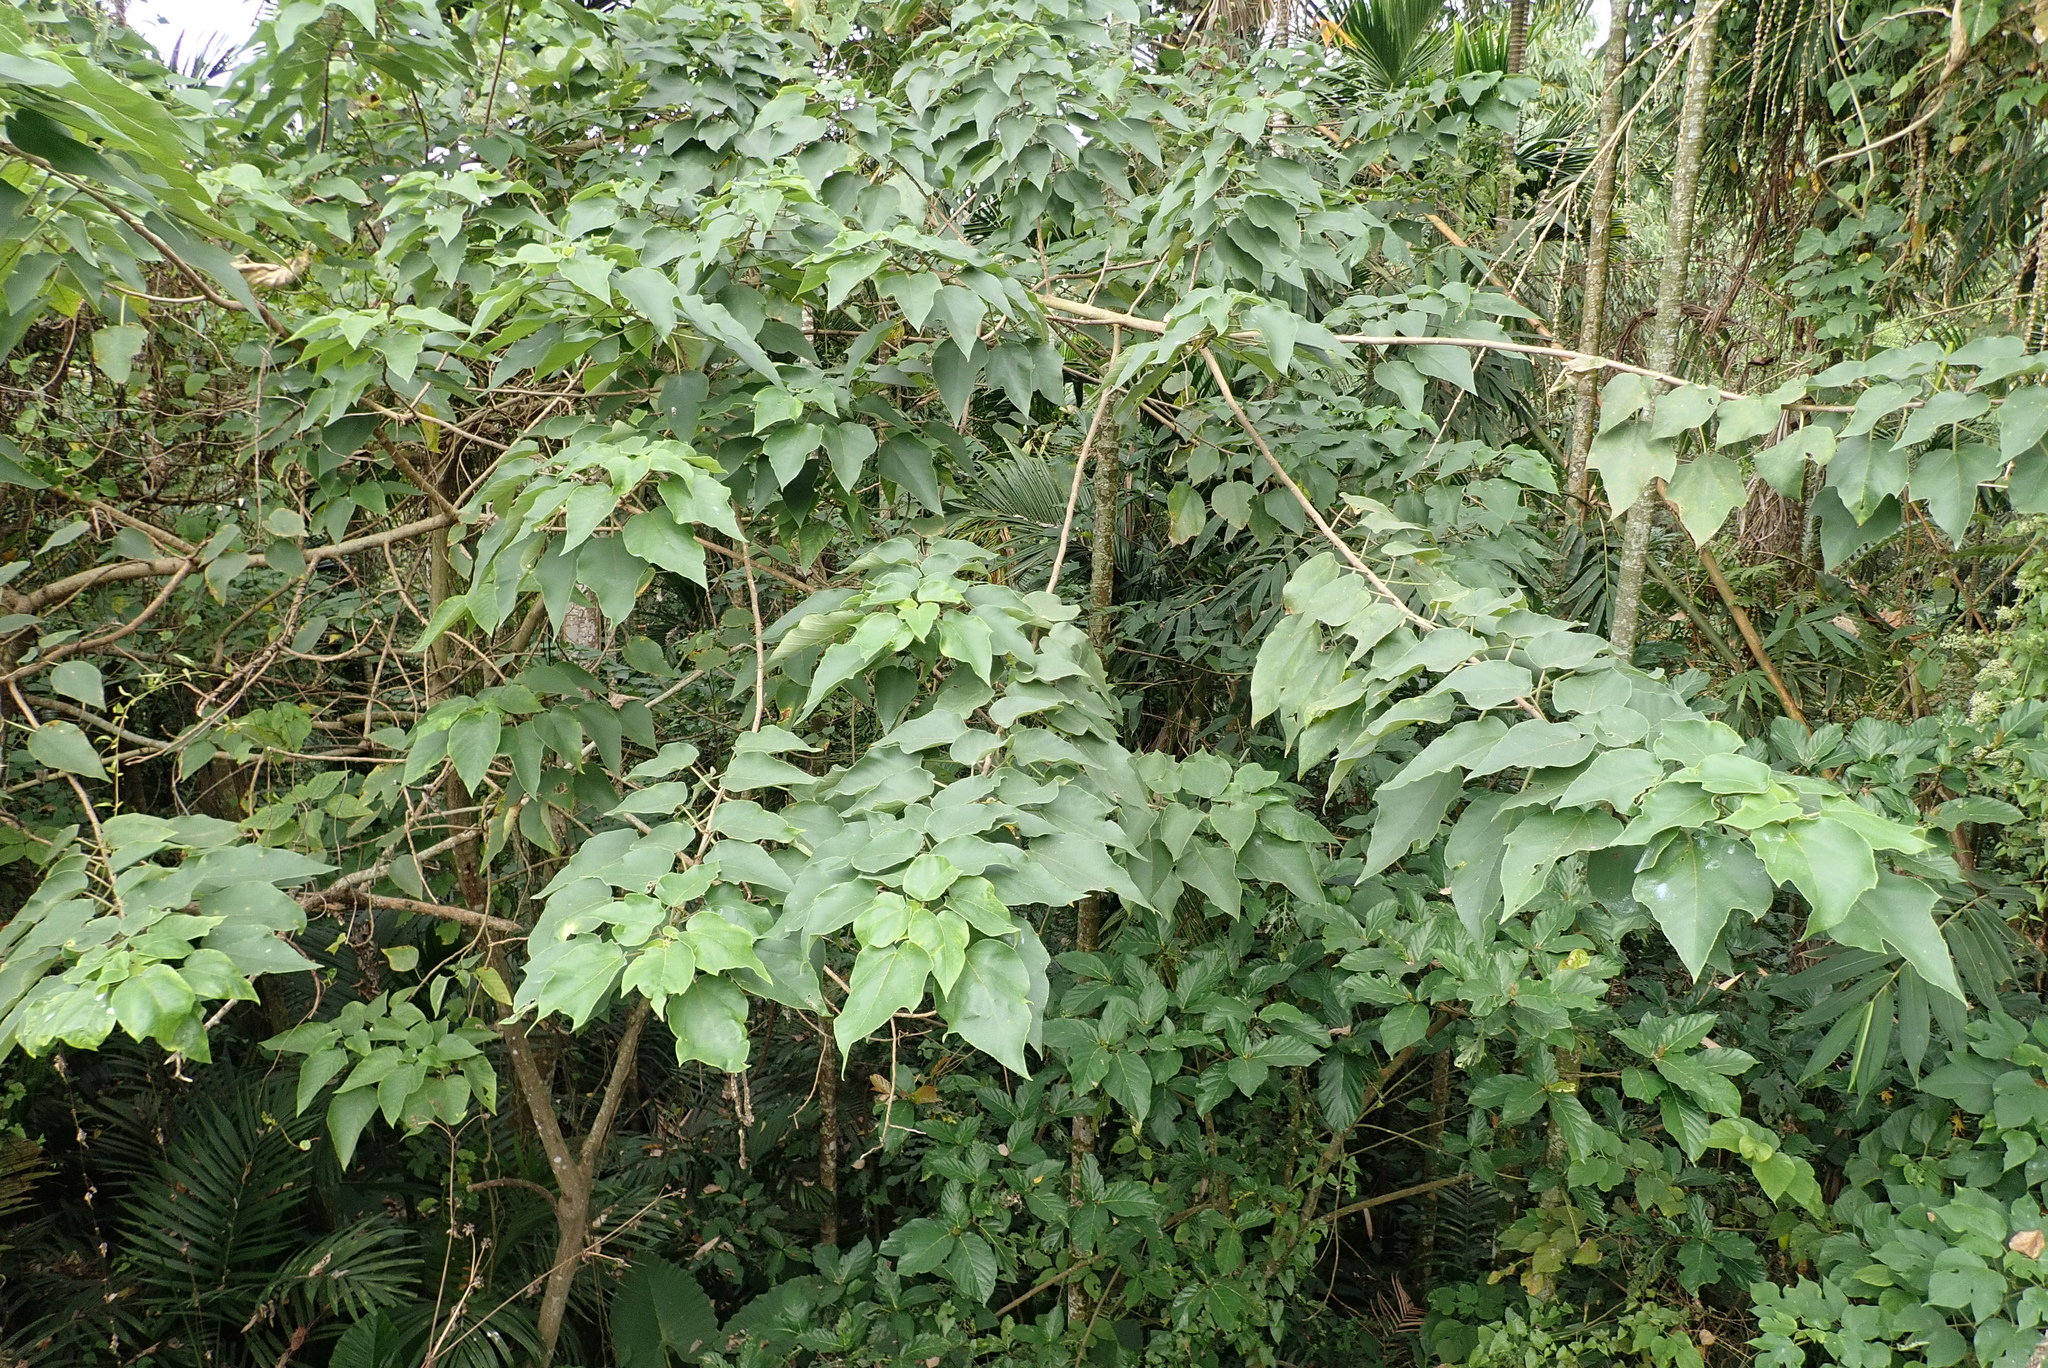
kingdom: Plantae
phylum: Tracheophyta
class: Magnoliopsida
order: Rosales
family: Moraceae
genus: Broussonetia
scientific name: Broussonetia papyrifera
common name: Paper mulberry
